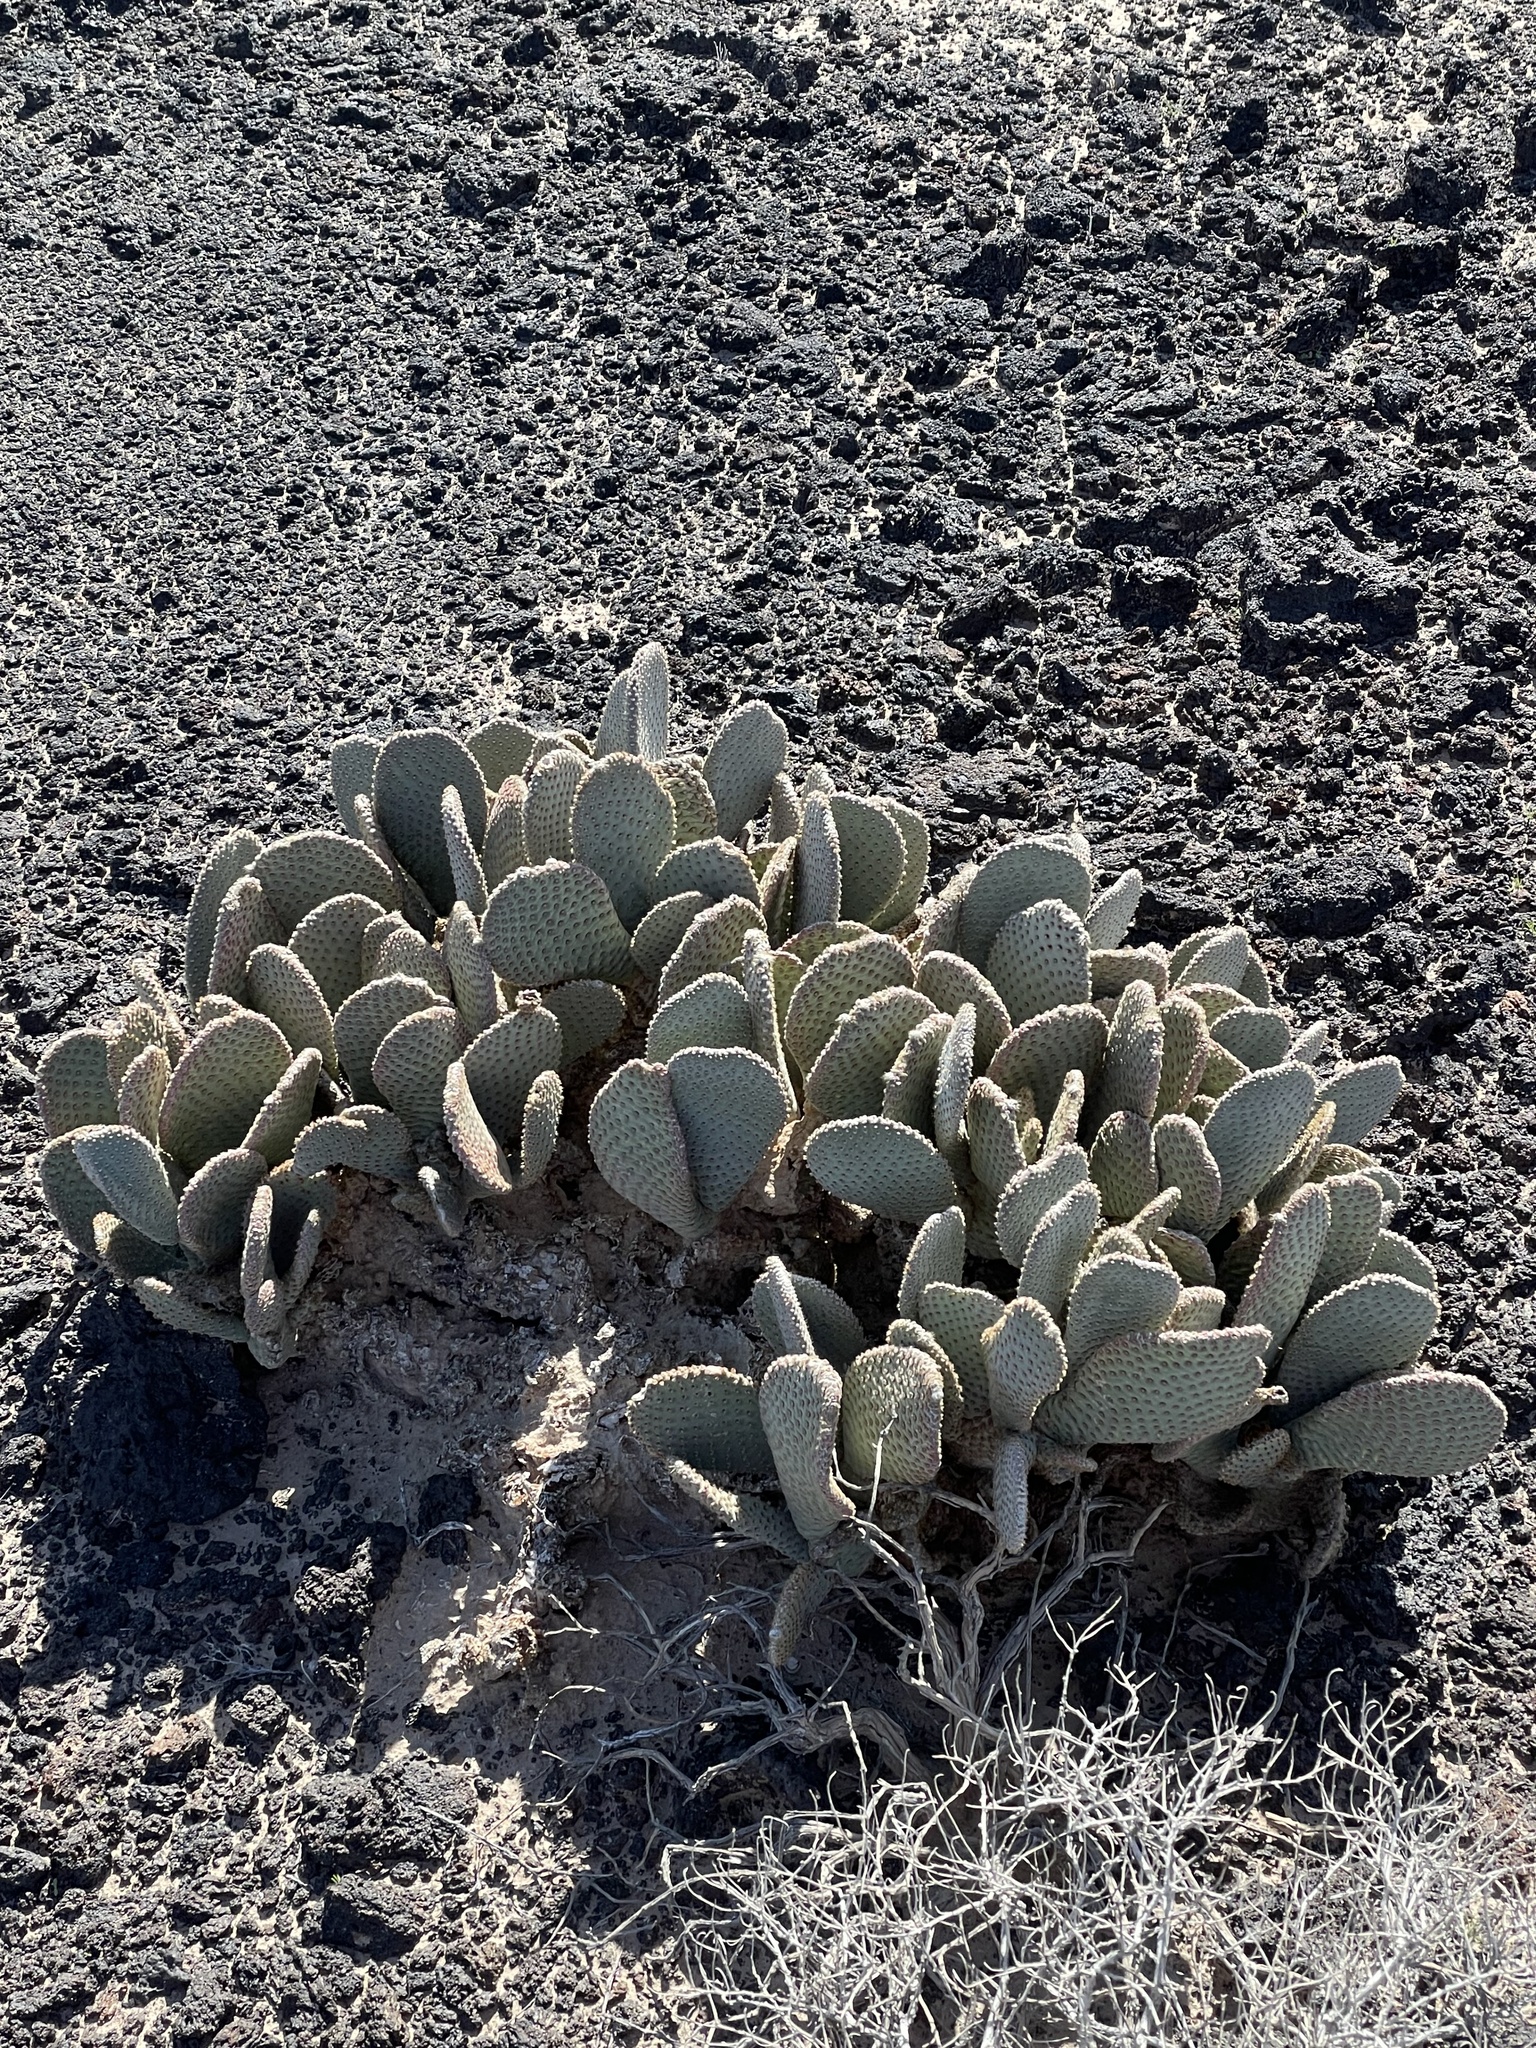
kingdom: Plantae
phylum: Tracheophyta
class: Magnoliopsida
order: Caryophyllales
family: Cactaceae
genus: Opuntia
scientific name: Opuntia basilaris
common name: Beavertail prickly-pear
